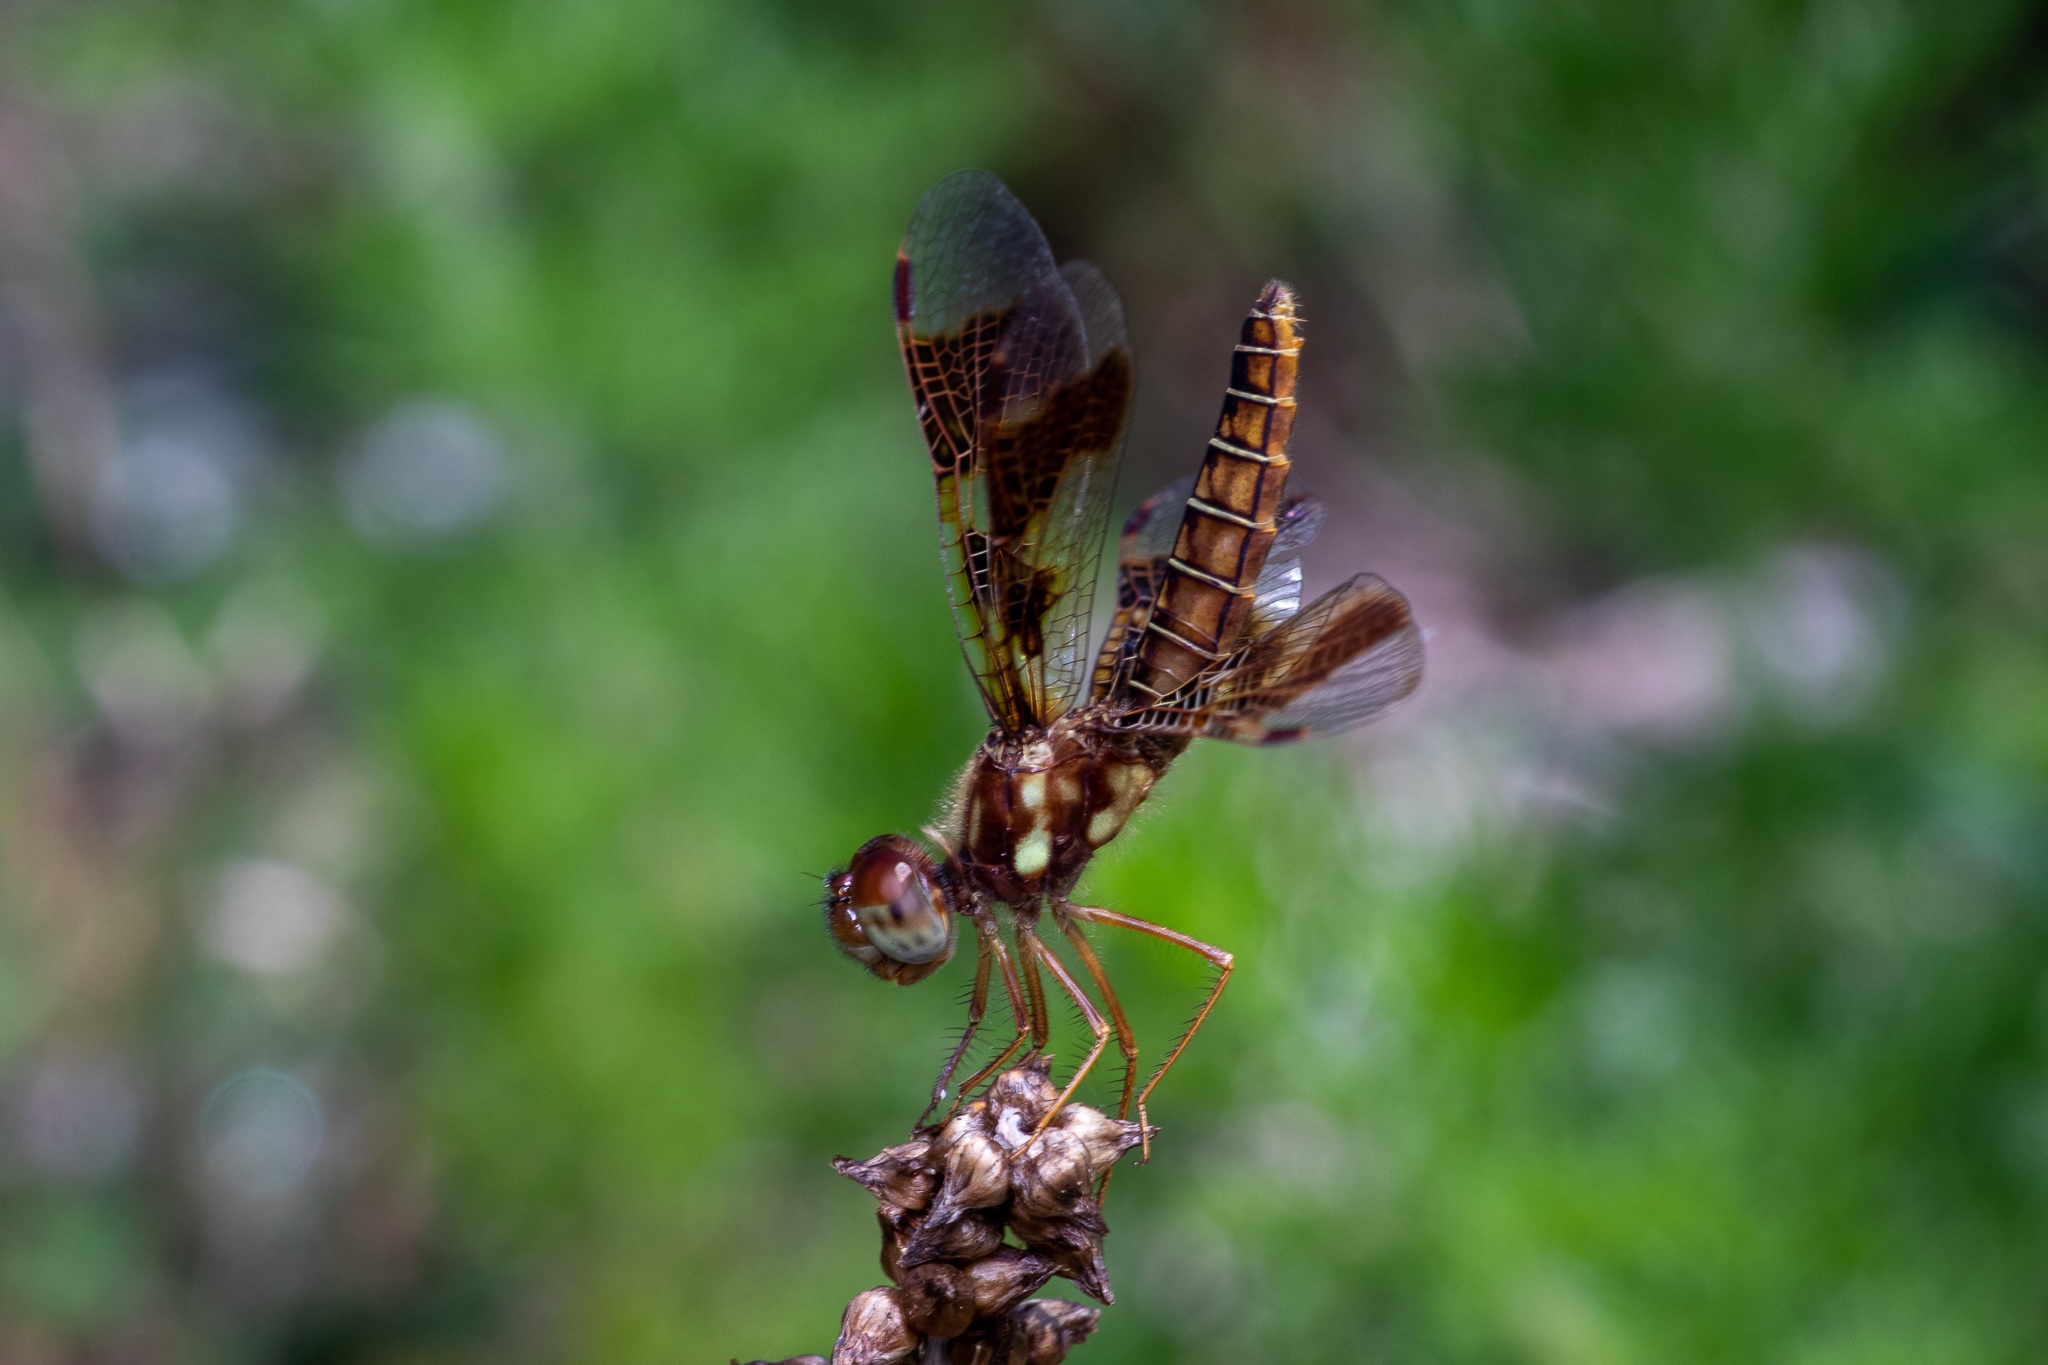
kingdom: Animalia
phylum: Arthropoda
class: Insecta
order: Odonata
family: Libellulidae
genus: Perithemis
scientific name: Perithemis tenera
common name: Eastern amberwing
